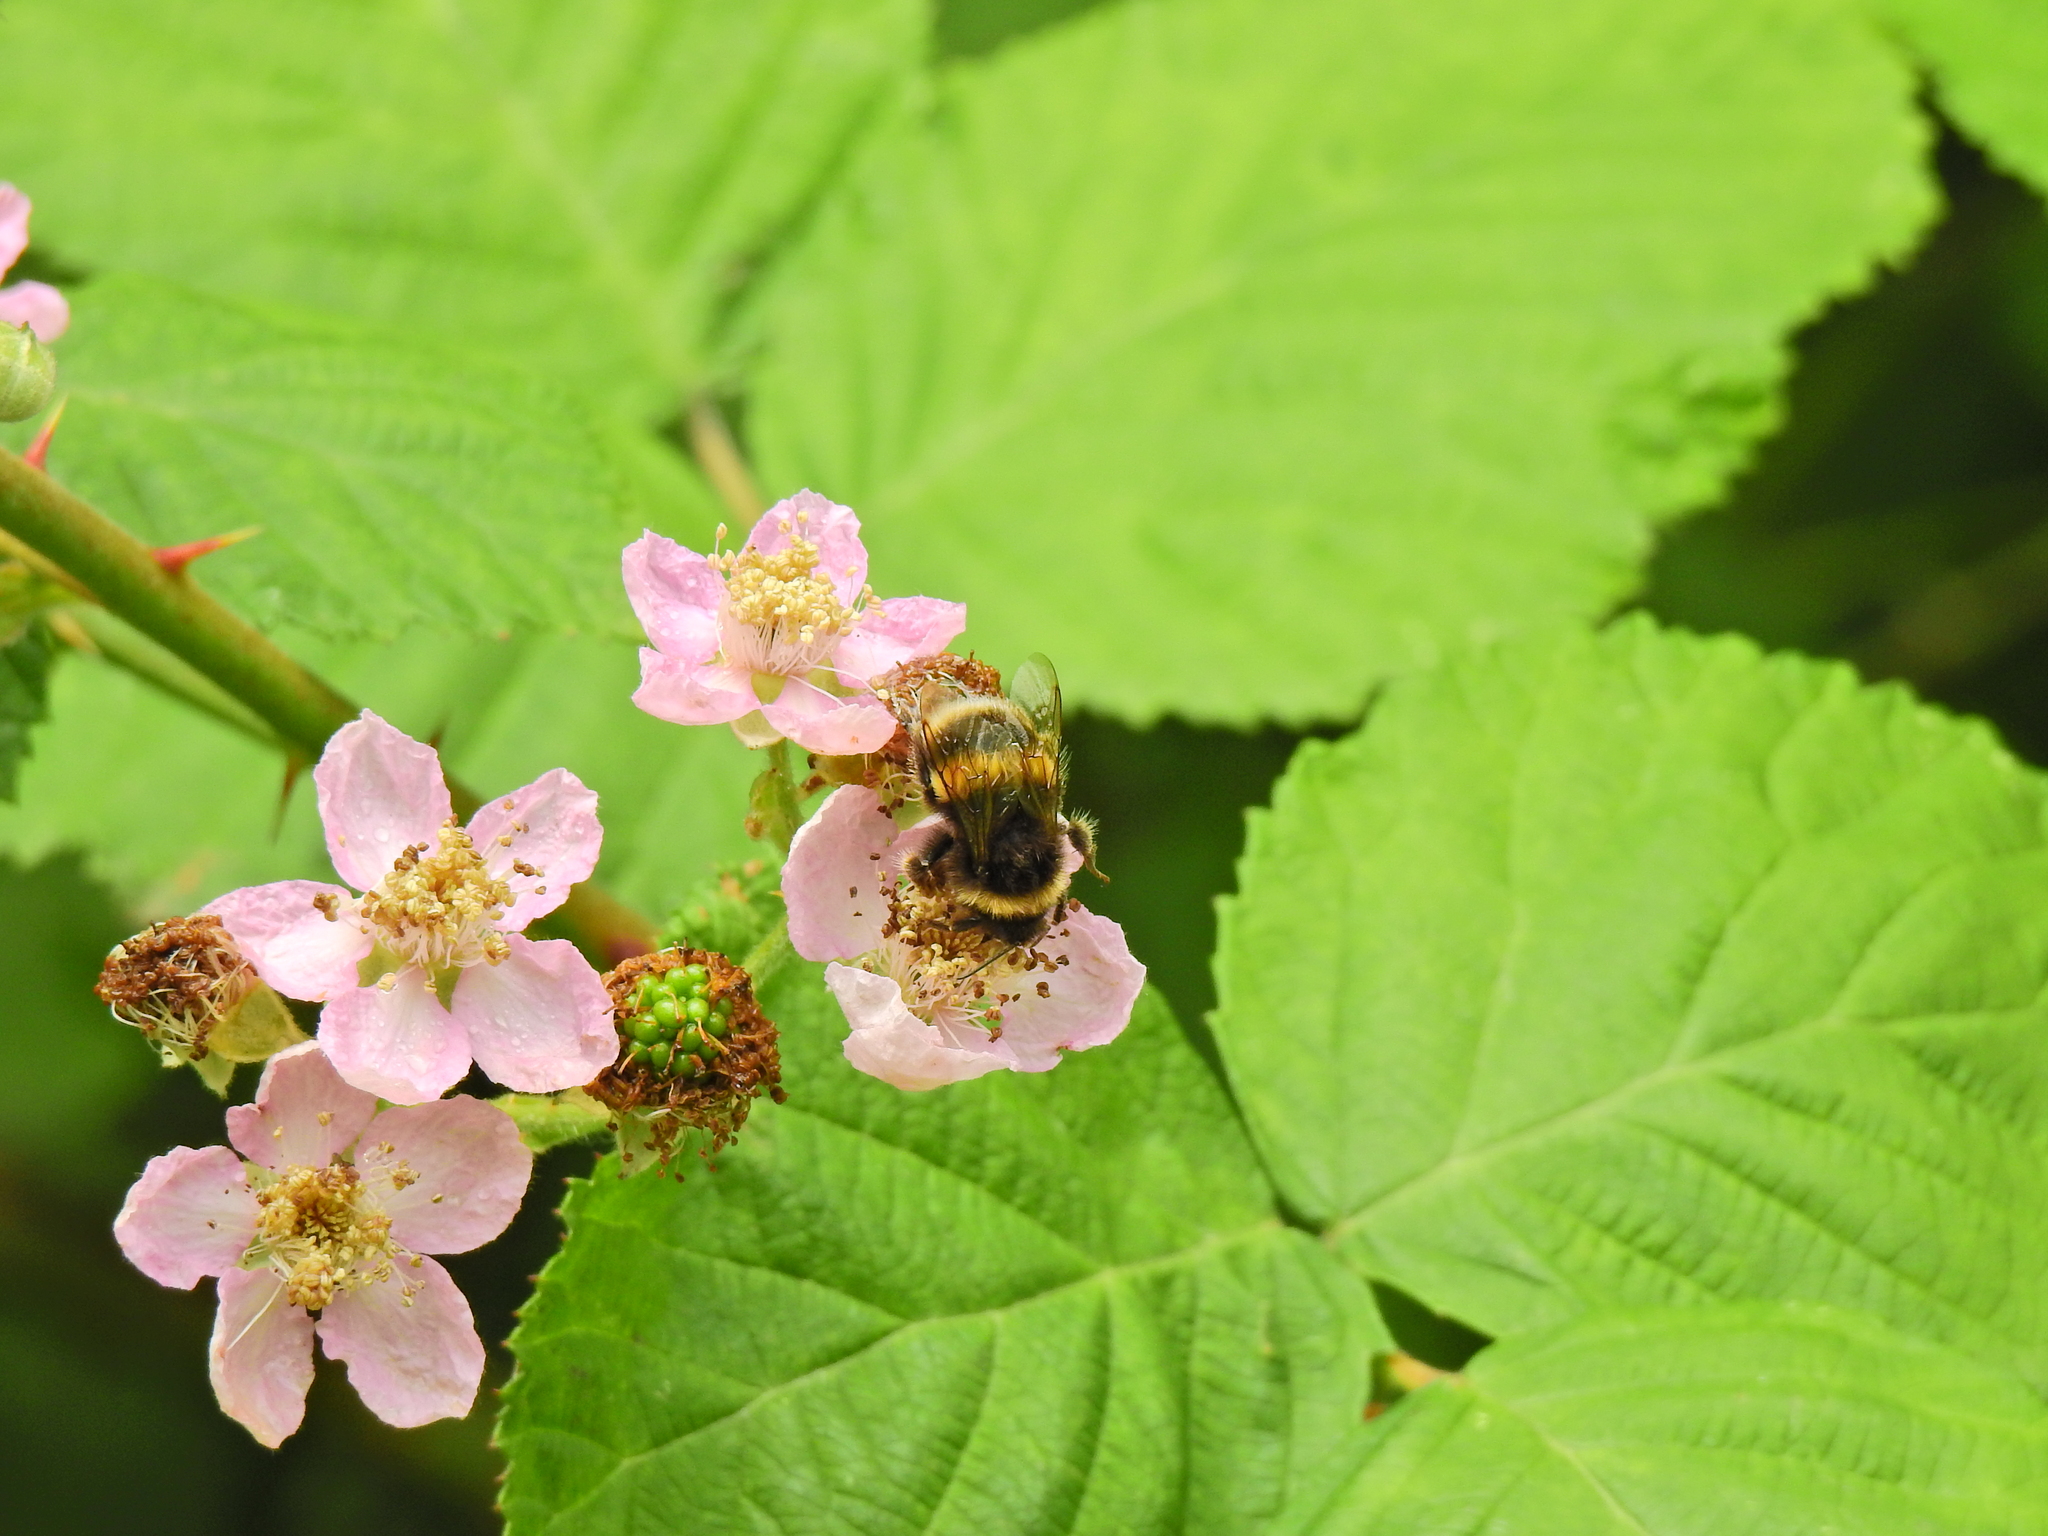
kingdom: Animalia
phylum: Arthropoda
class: Insecta
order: Hymenoptera
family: Apidae
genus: Bombus
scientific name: Bombus terrestris
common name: Buff-tailed bumblebee
